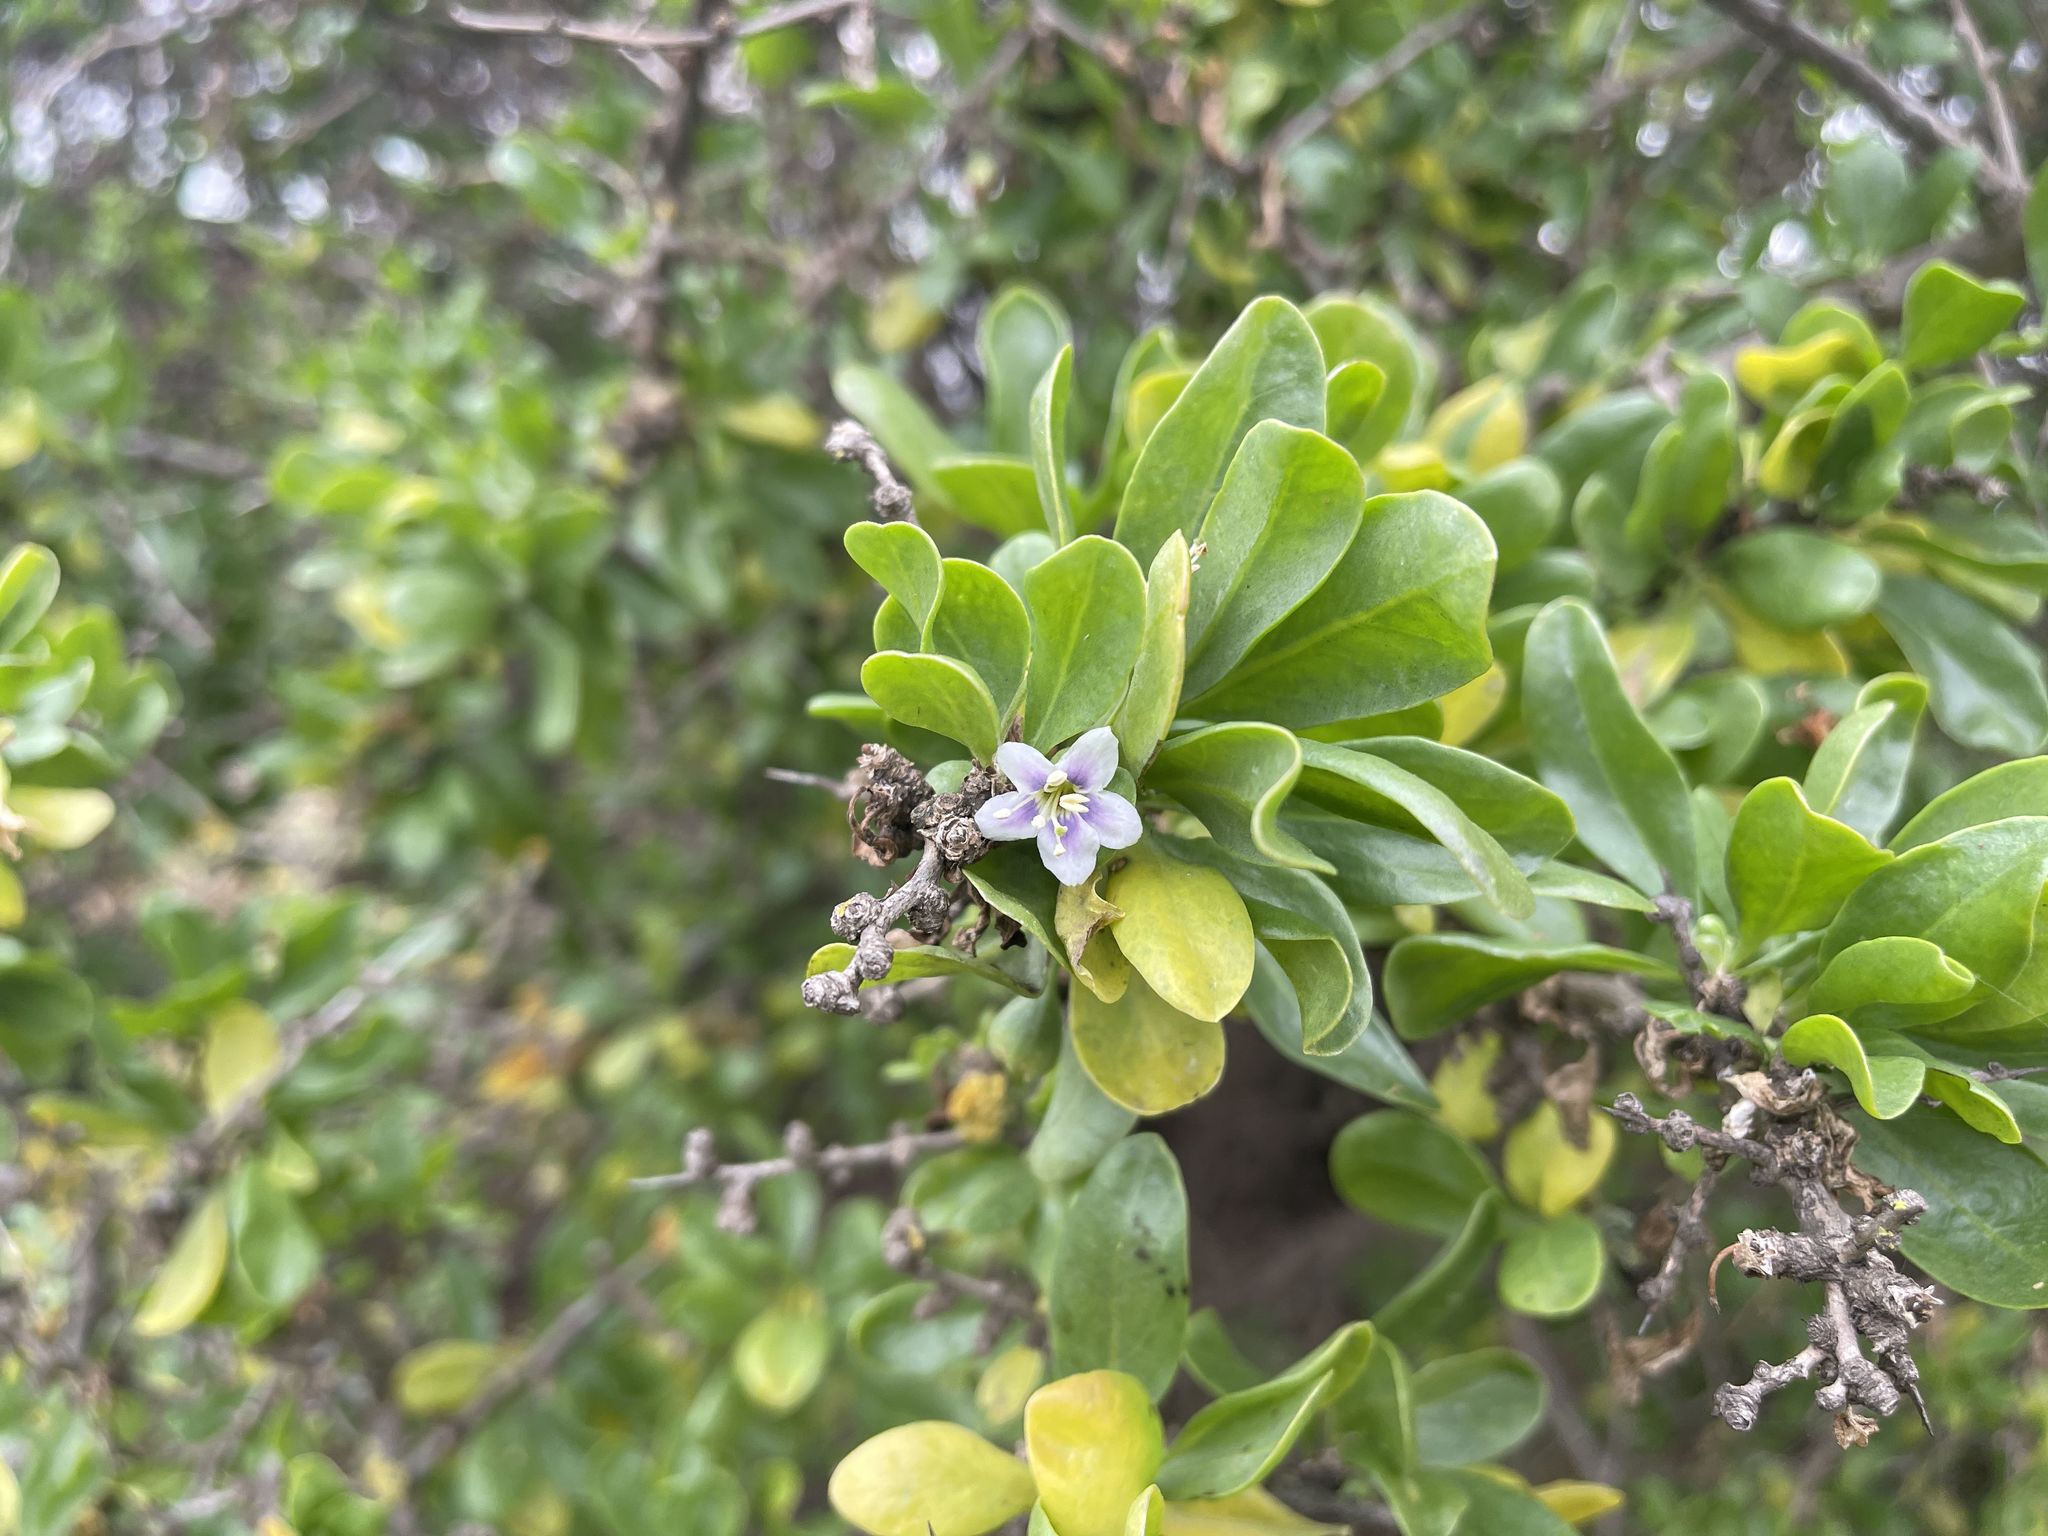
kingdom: Plantae
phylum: Tracheophyta
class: Magnoliopsida
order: Solanales
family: Solanaceae
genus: Lycium
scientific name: Lycium ferocissimum
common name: African boxthorn
